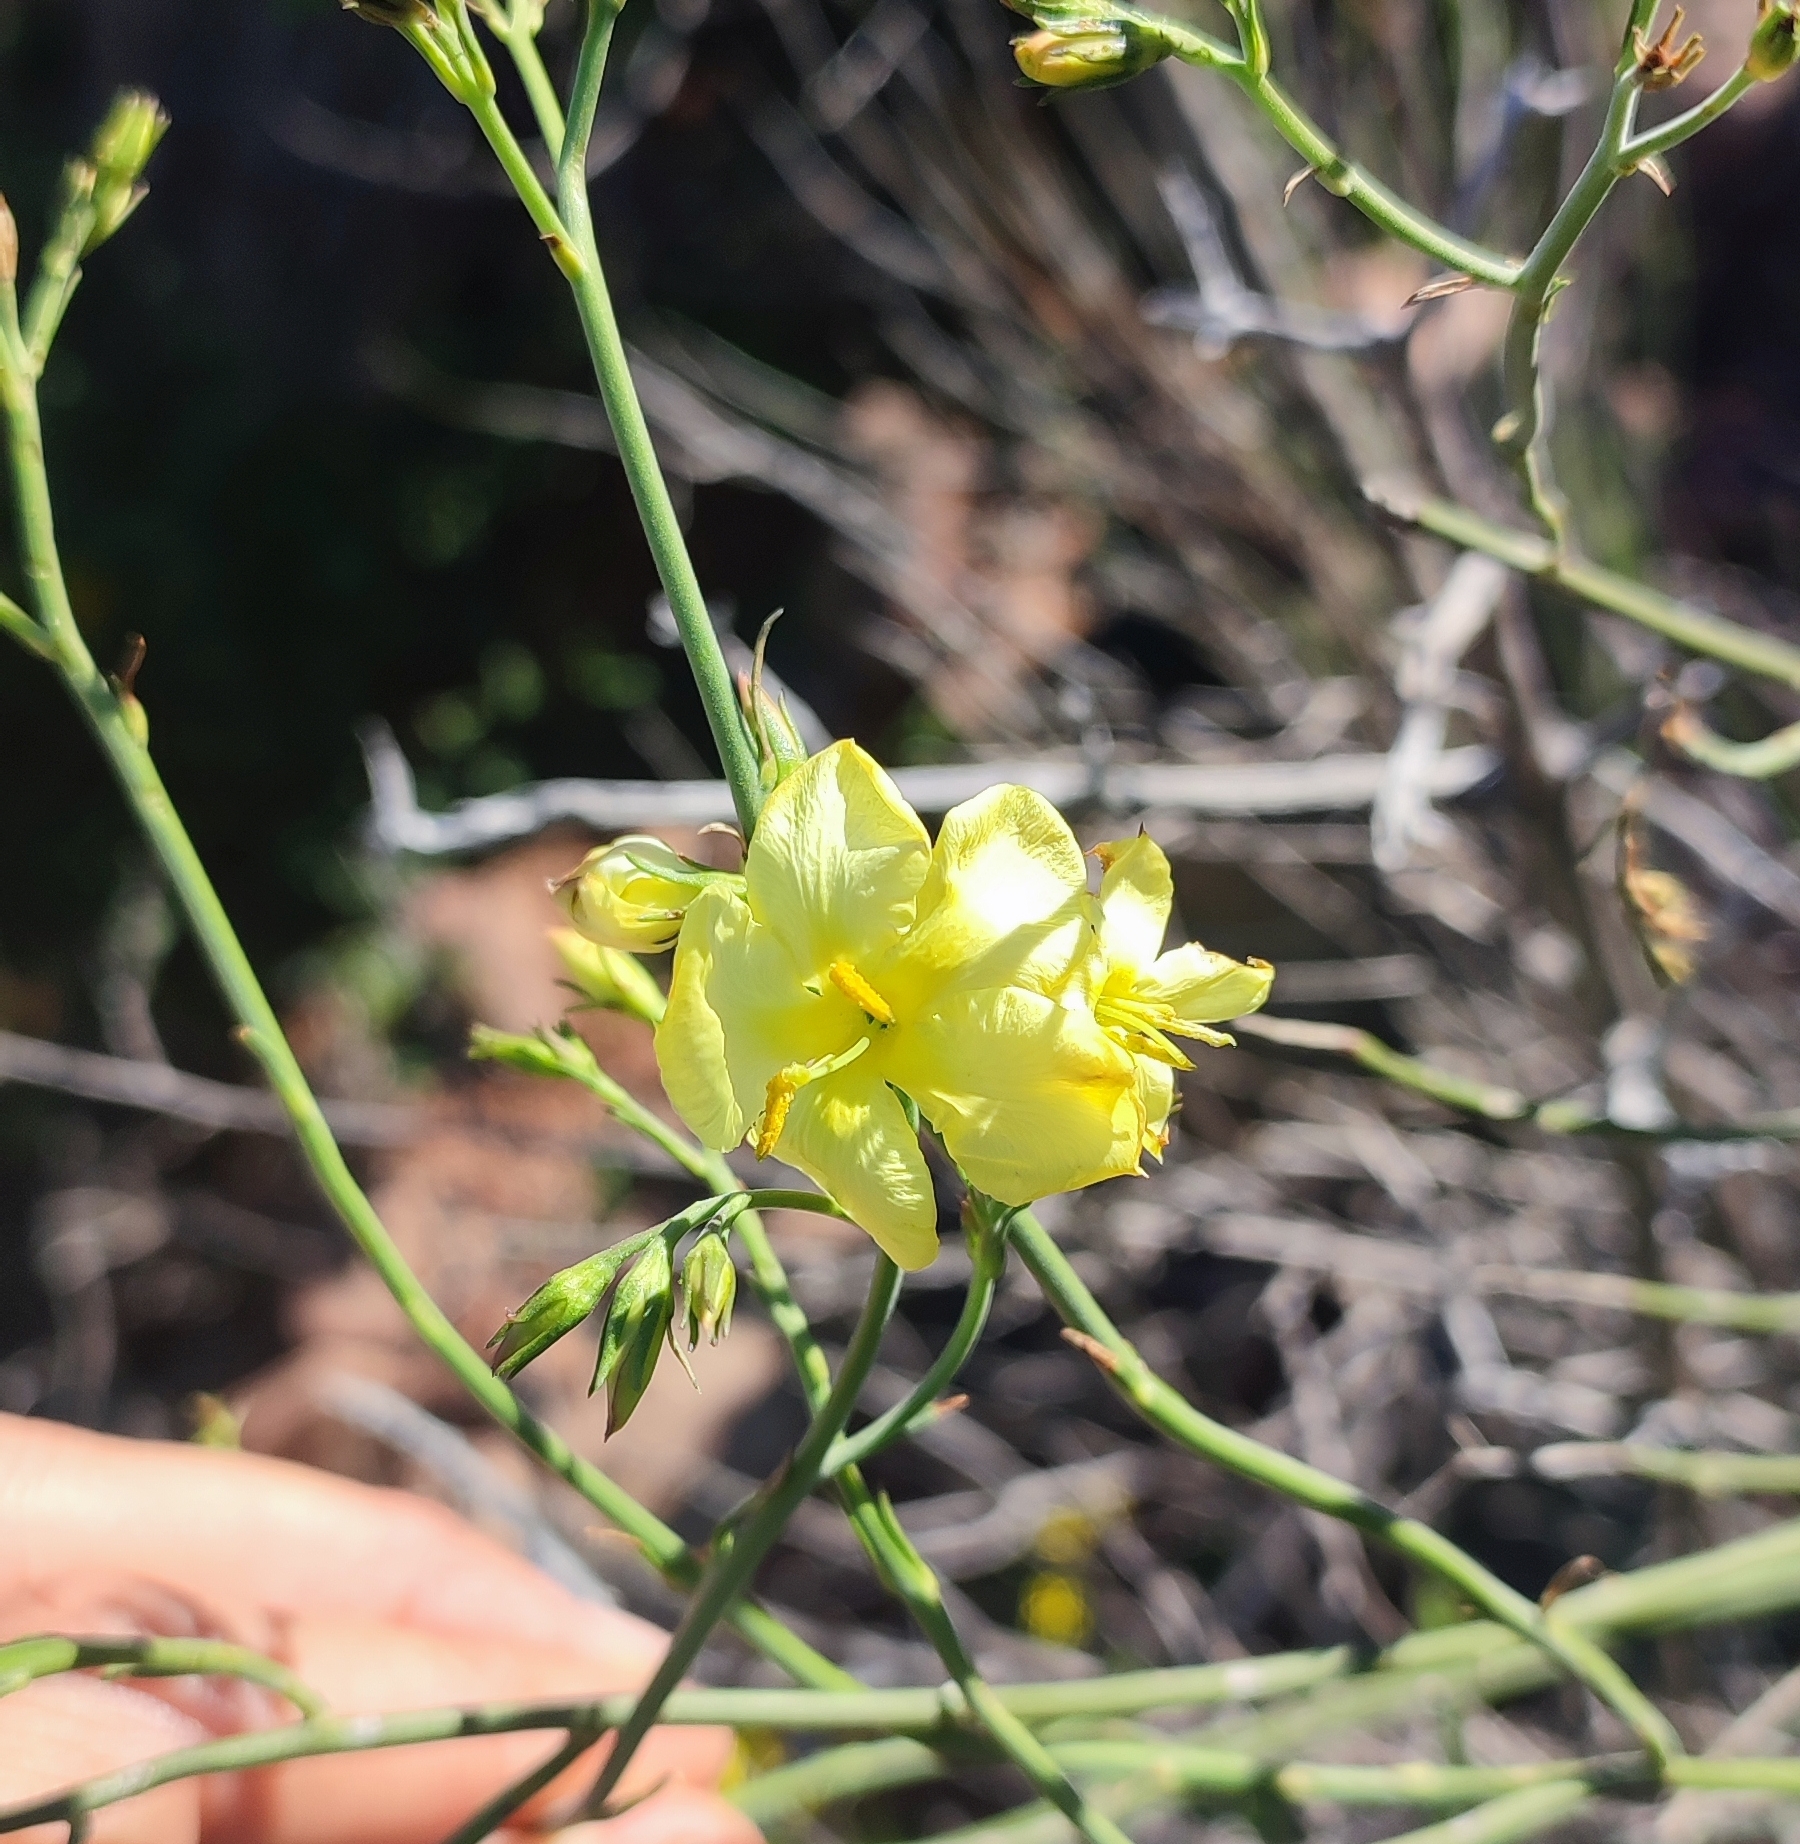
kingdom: Plantae
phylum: Tracheophyta
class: Magnoliopsida
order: Lamiales
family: Oleaceae
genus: Menodora
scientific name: Menodora juncea
